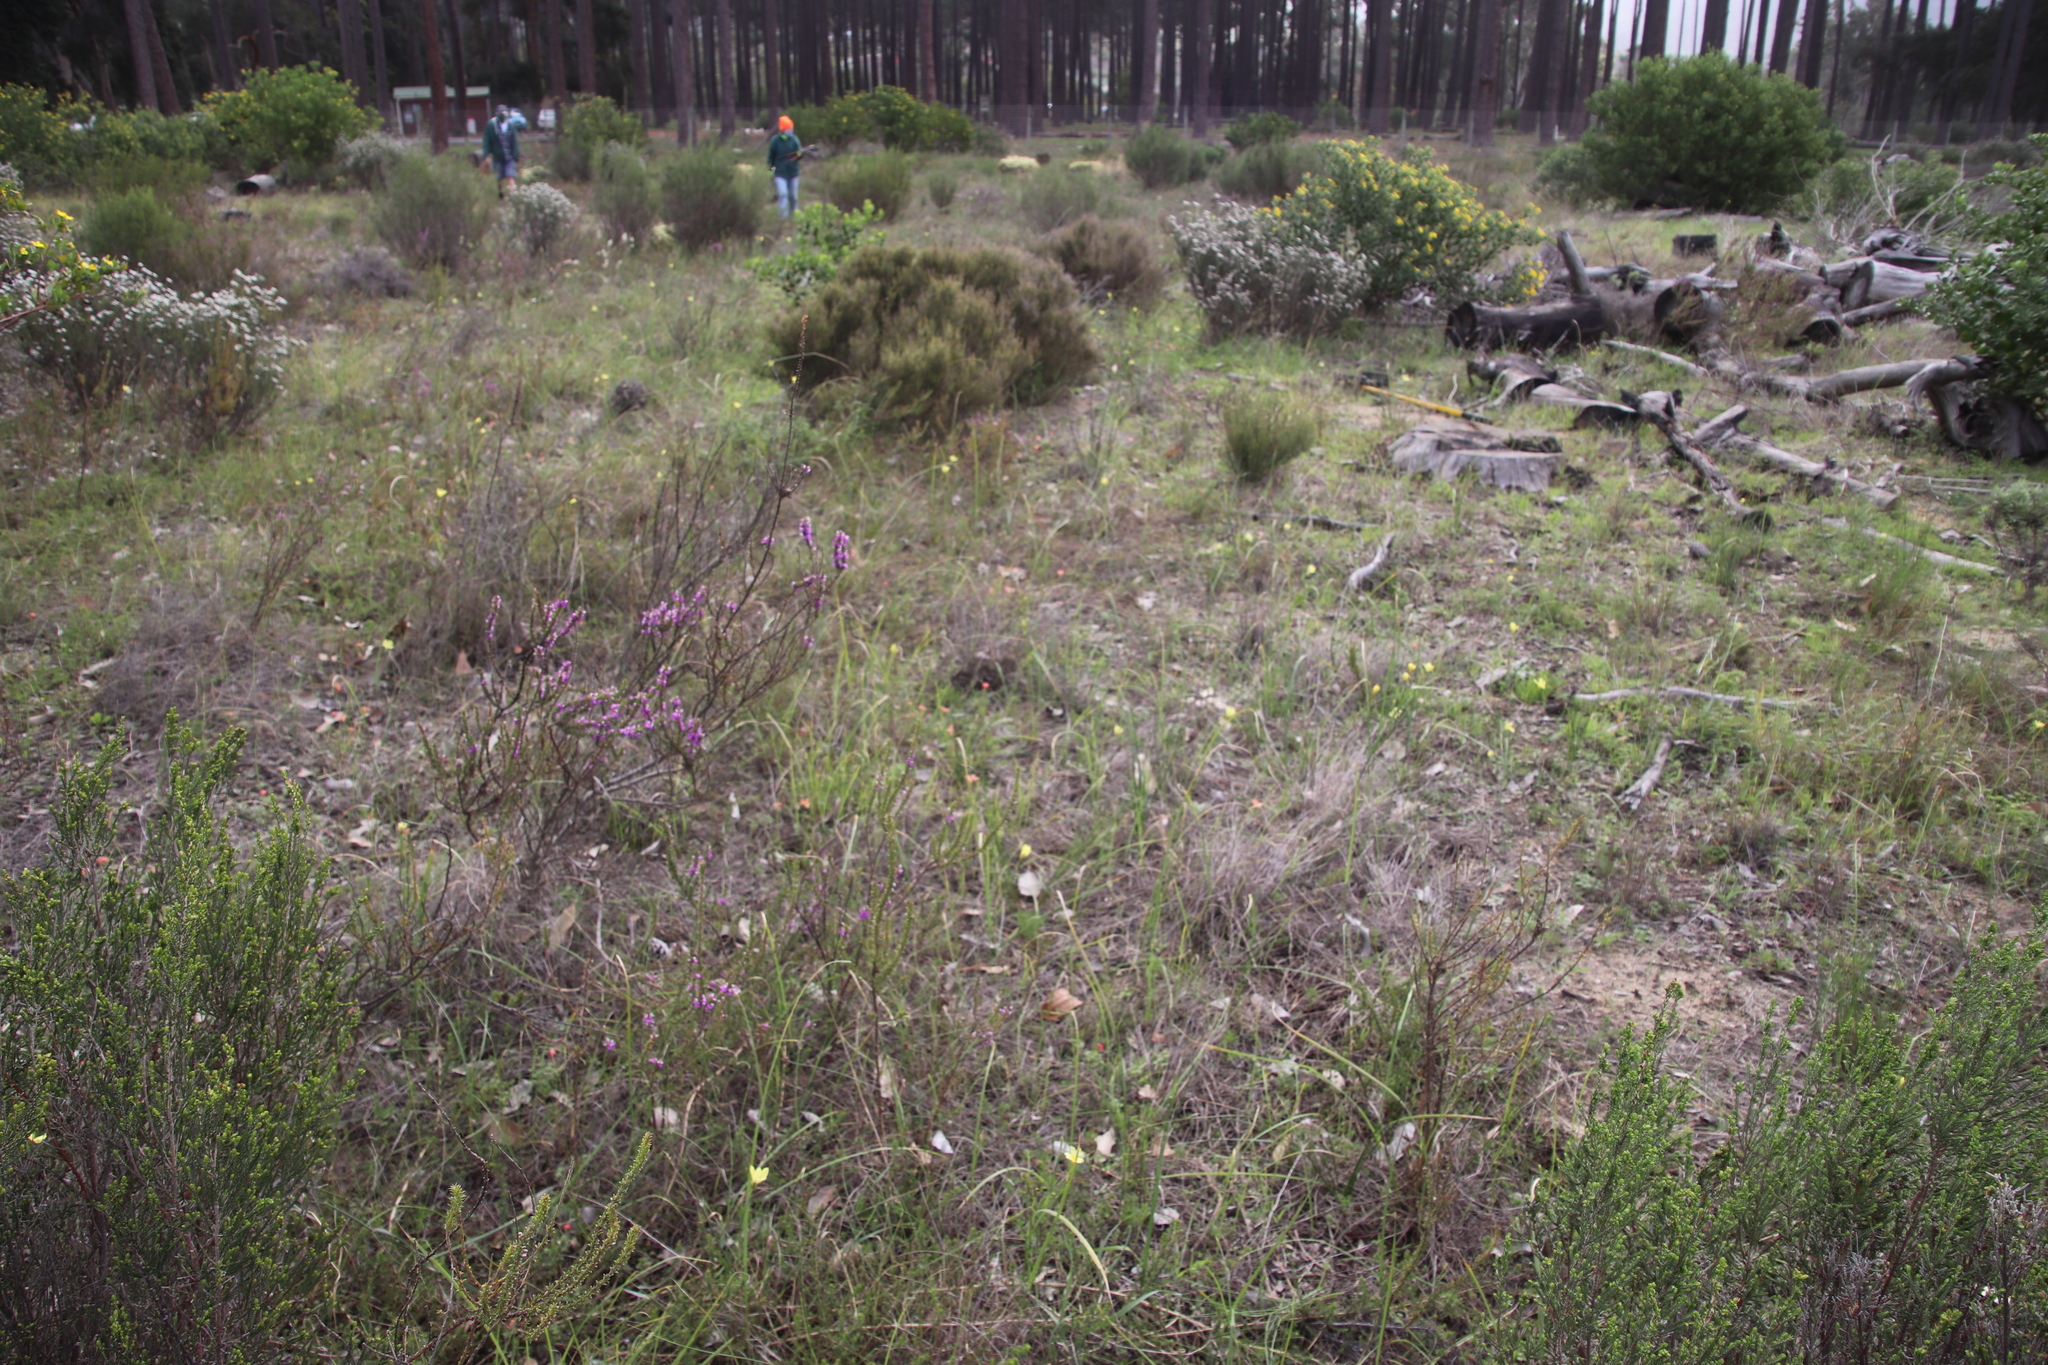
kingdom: Plantae
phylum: Tracheophyta
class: Liliopsida
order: Asparagales
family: Iridaceae
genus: Moraea
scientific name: Moraea collina
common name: Cape-tulip
